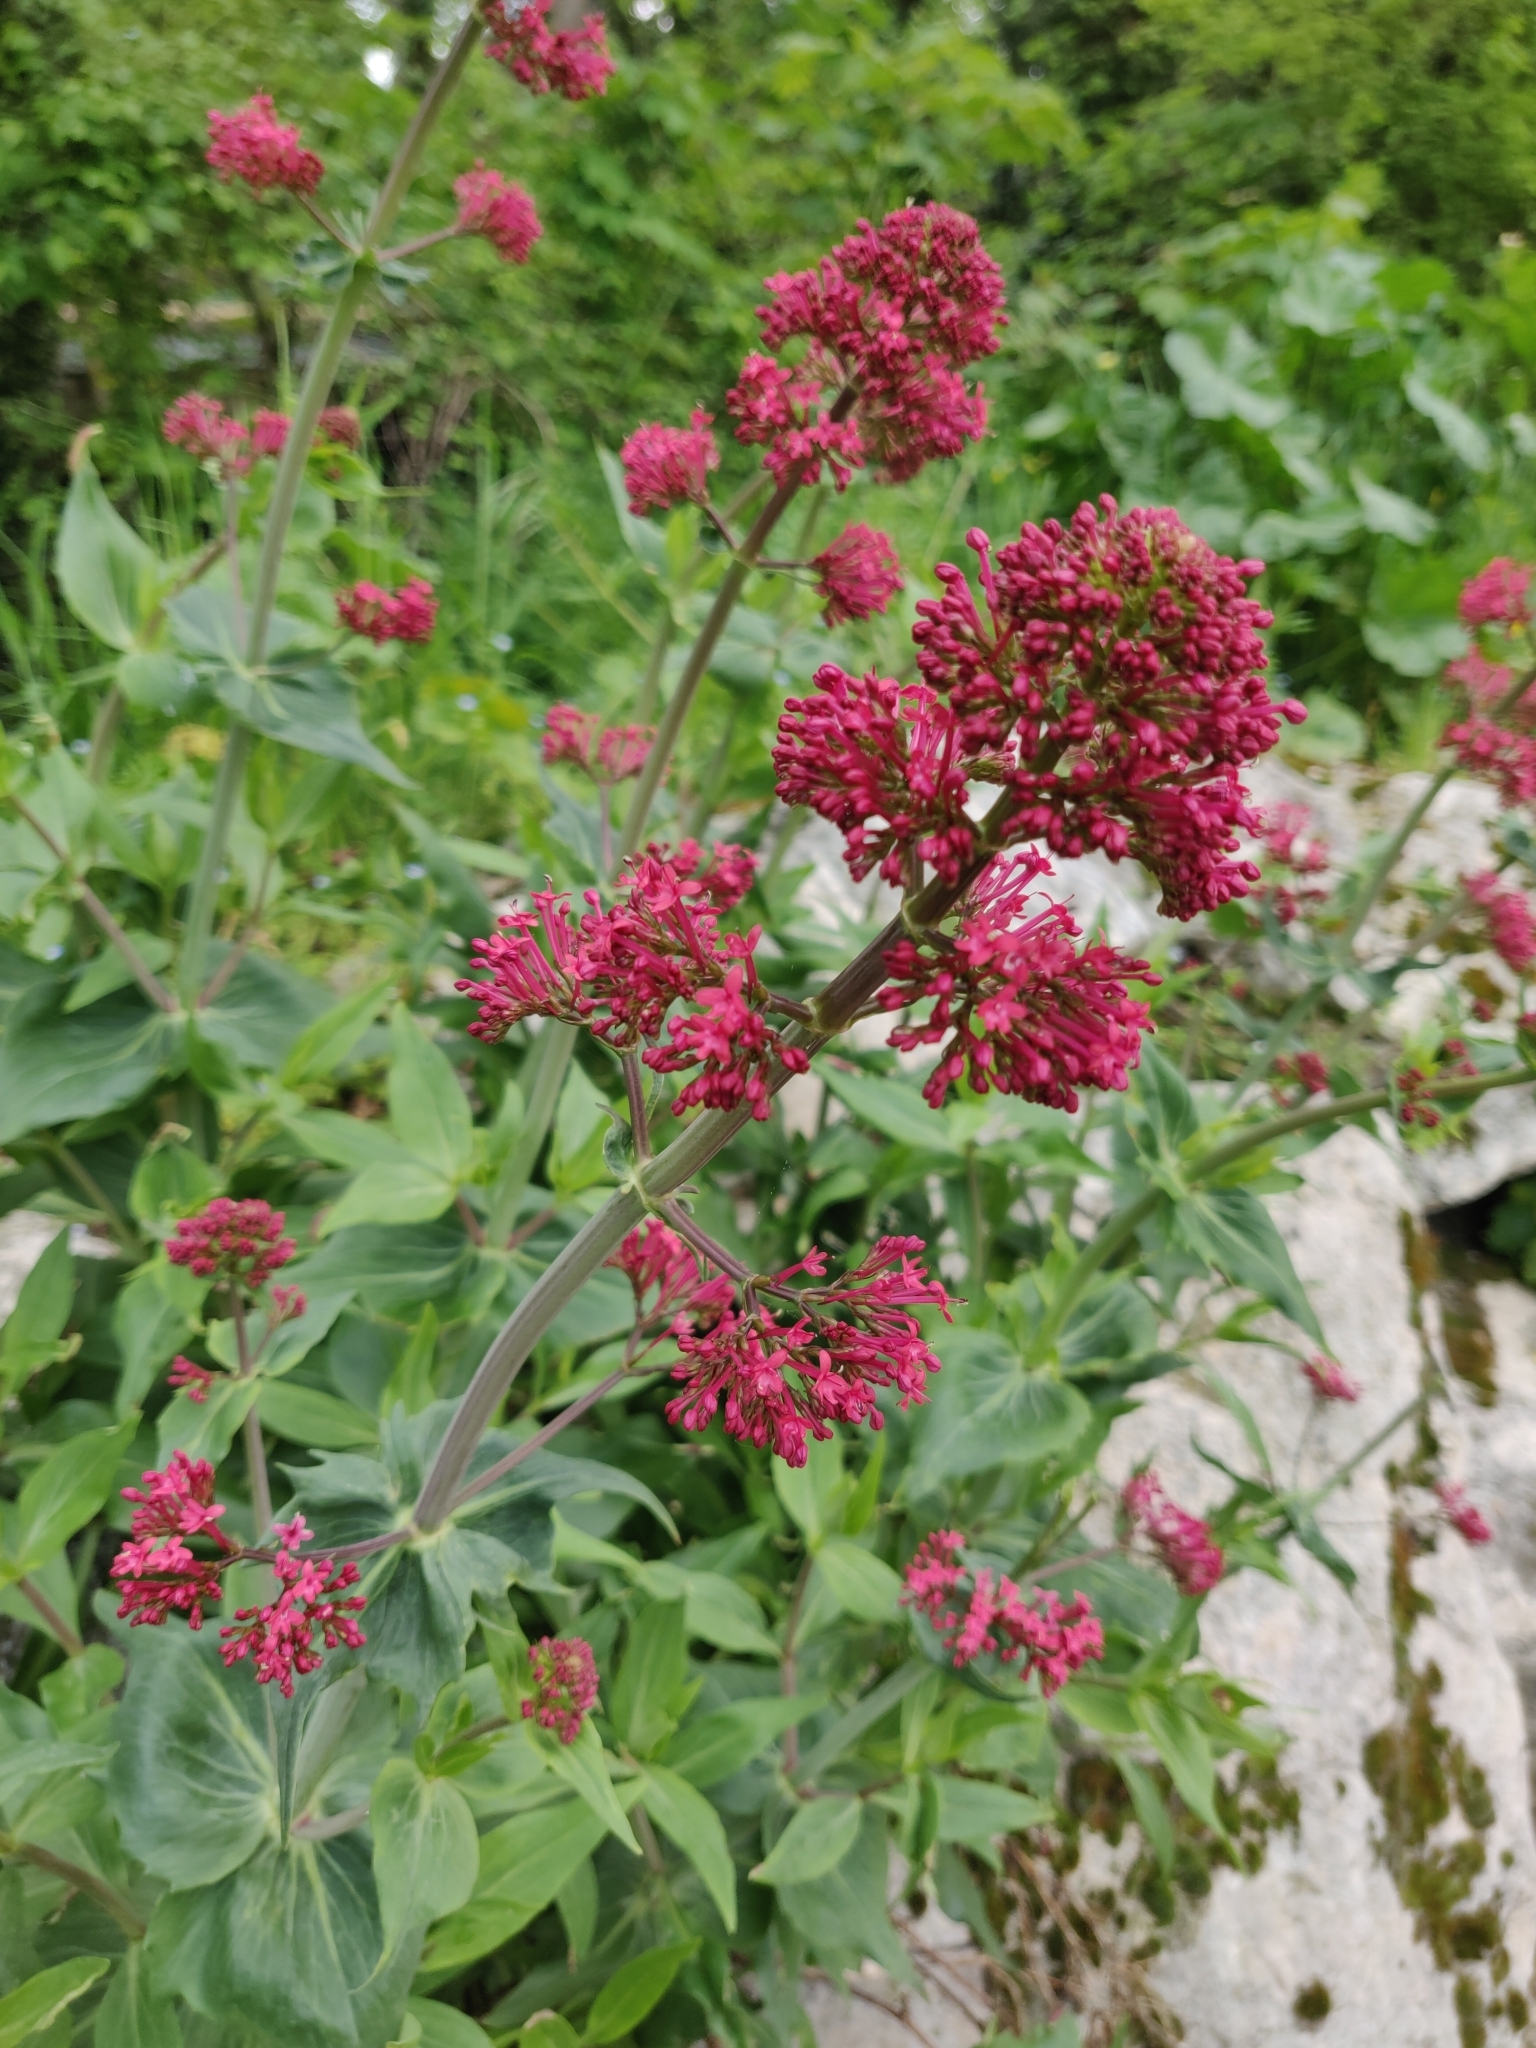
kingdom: Plantae
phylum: Tracheophyta
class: Magnoliopsida
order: Dipsacales
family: Caprifoliaceae
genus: Centranthus
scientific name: Centranthus ruber
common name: Red valerian
